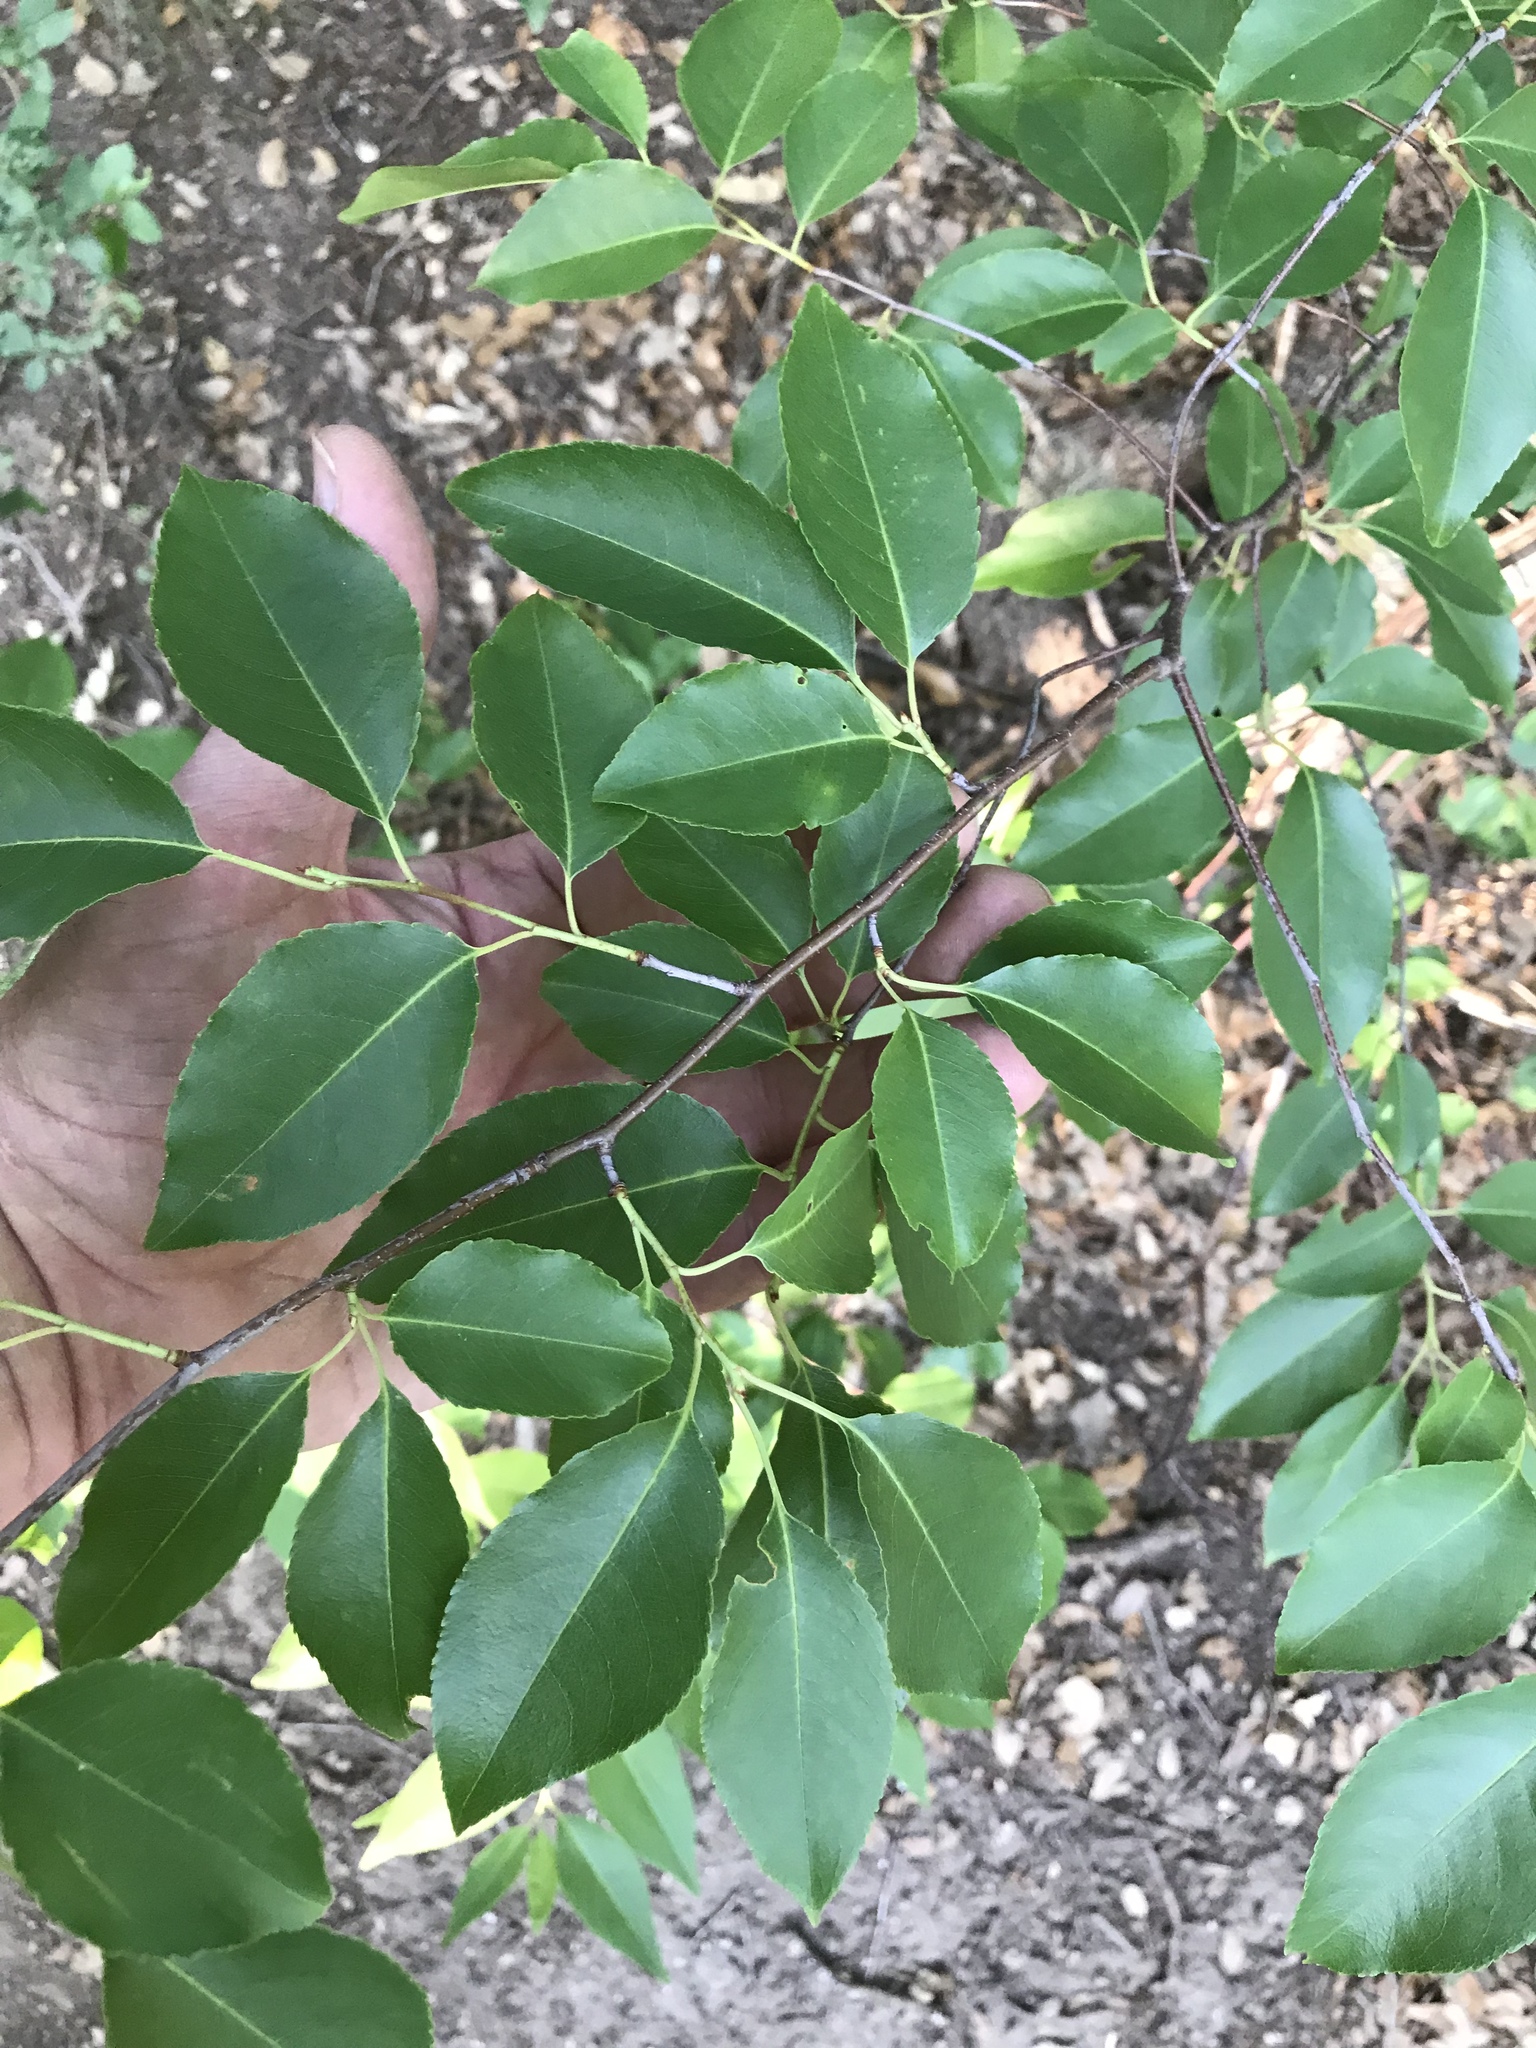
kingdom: Plantae
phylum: Tracheophyta
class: Magnoliopsida
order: Rosales
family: Rosaceae
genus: Prunus
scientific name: Prunus serotina
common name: Black cherry
